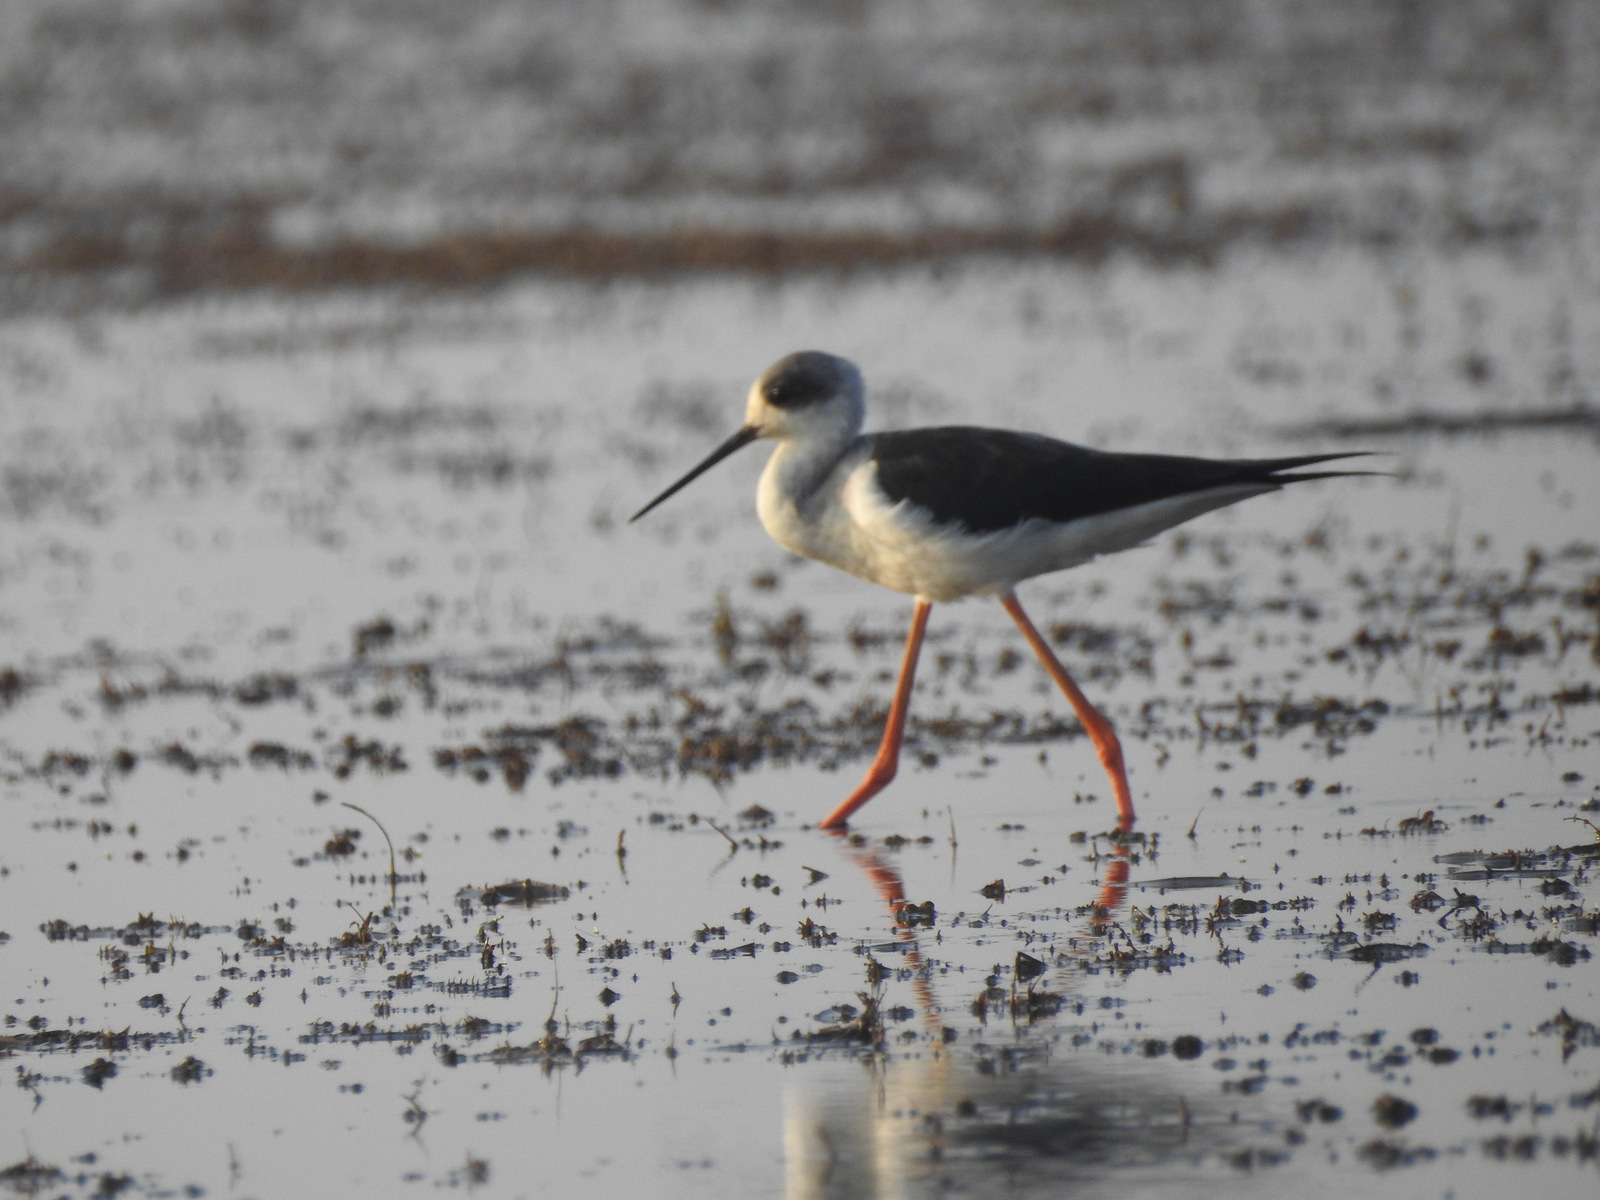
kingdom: Animalia
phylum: Chordata
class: Aves
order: Charadriiformes
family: Recurvirostridae
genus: Himantopus
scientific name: Himantopus himantopus
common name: Black-winged stilt
